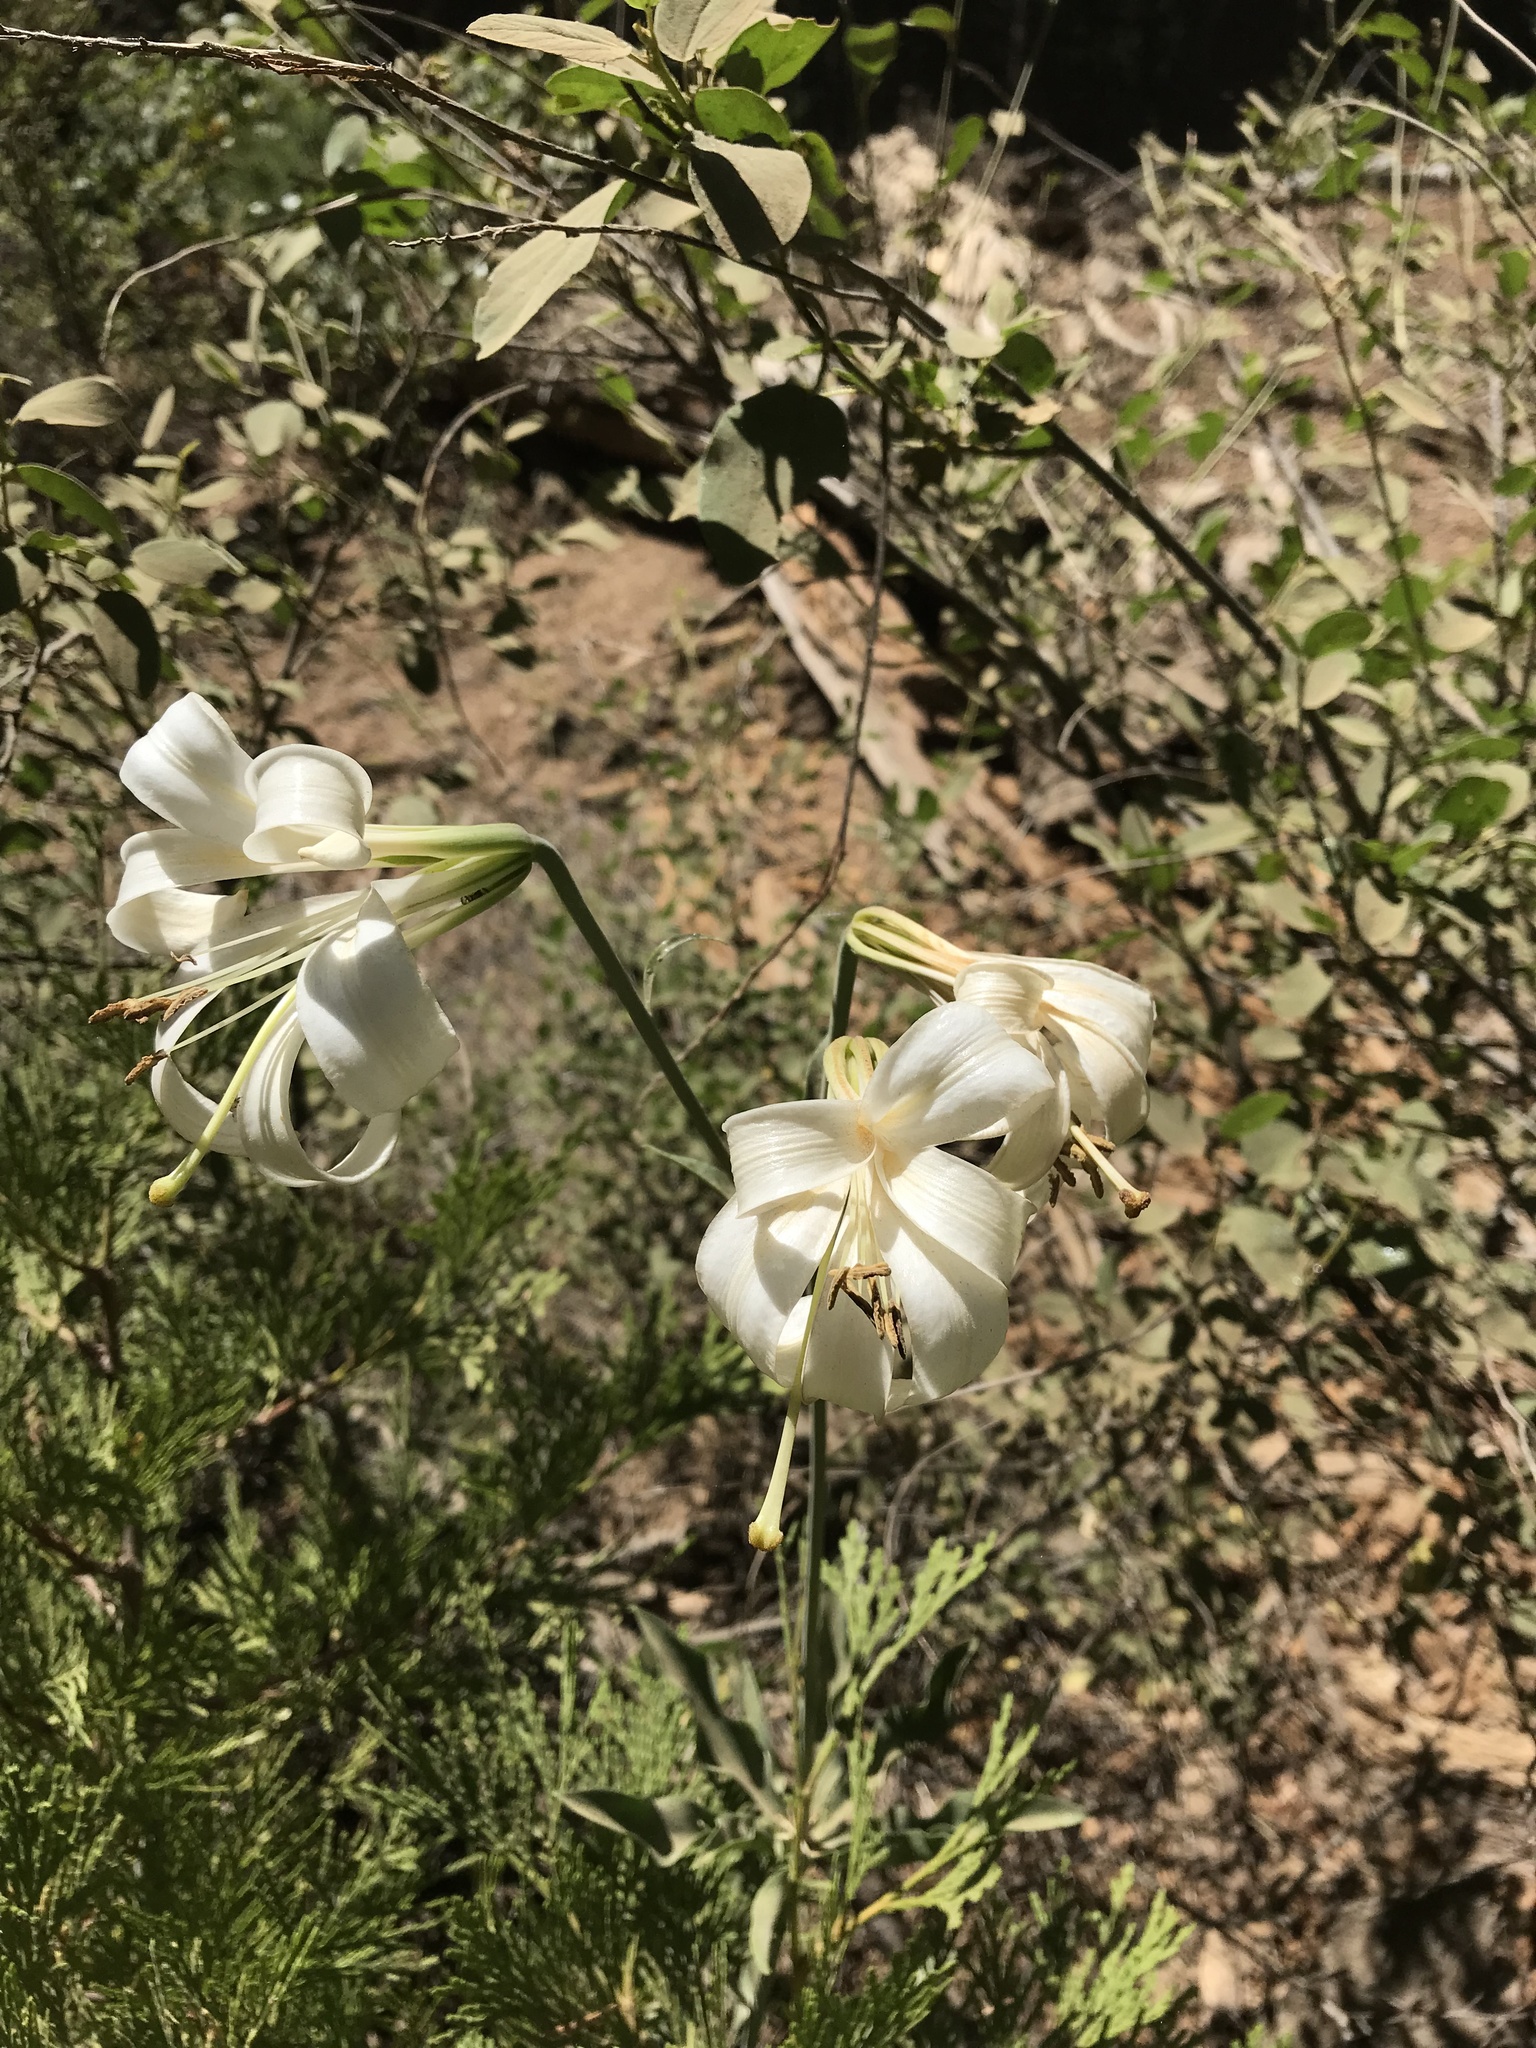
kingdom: Plantae
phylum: Tracheophyta
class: Liliopsida
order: Liliales
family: Liliaceae
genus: Lilium
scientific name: Lilium washingtonianum
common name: Washington lily
